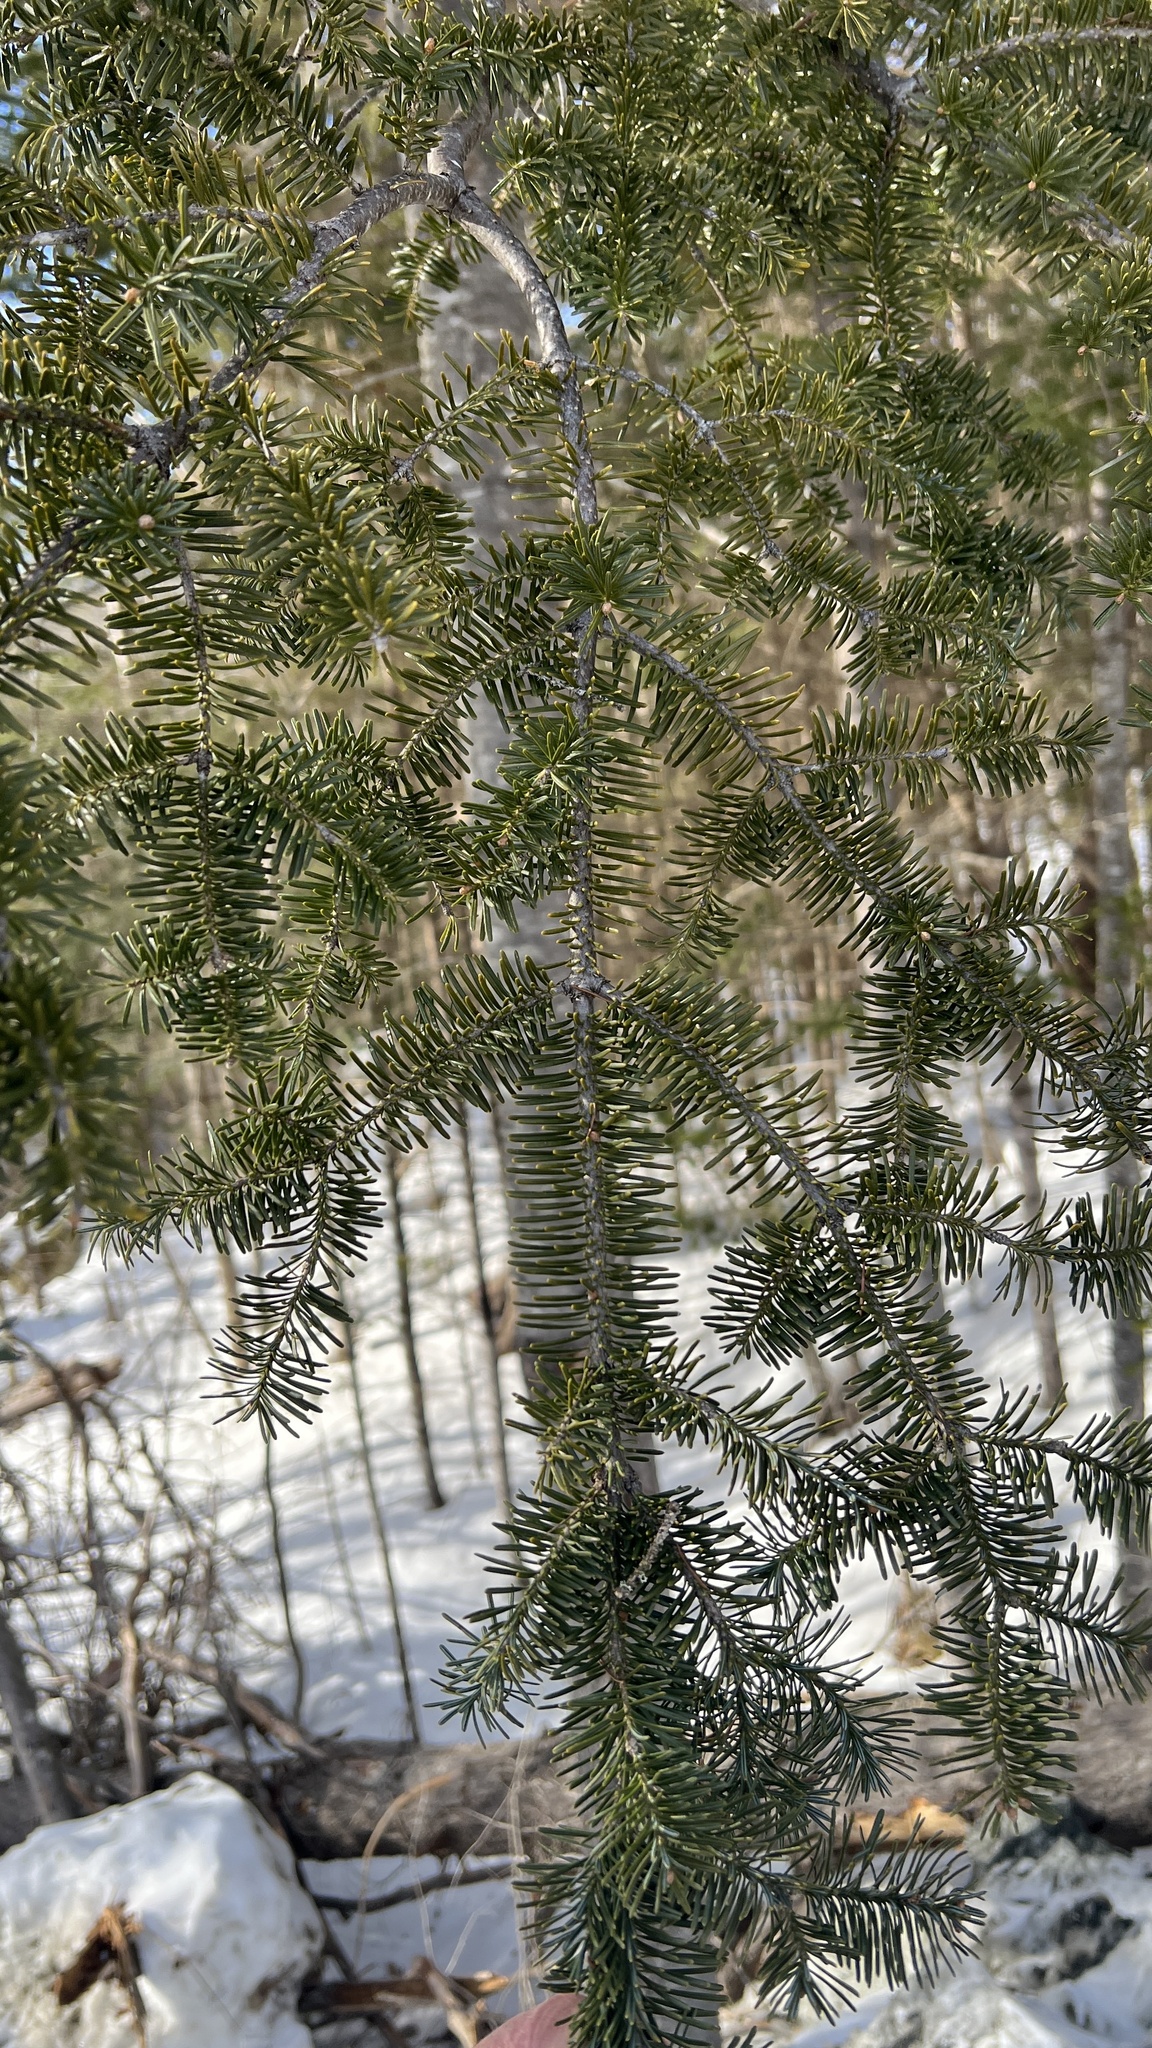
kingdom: Plantae
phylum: Tracheophyta
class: Pinopsida
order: Pinales
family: Pinaceae
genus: Abies
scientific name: Abies balsamea
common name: Balsam fir
